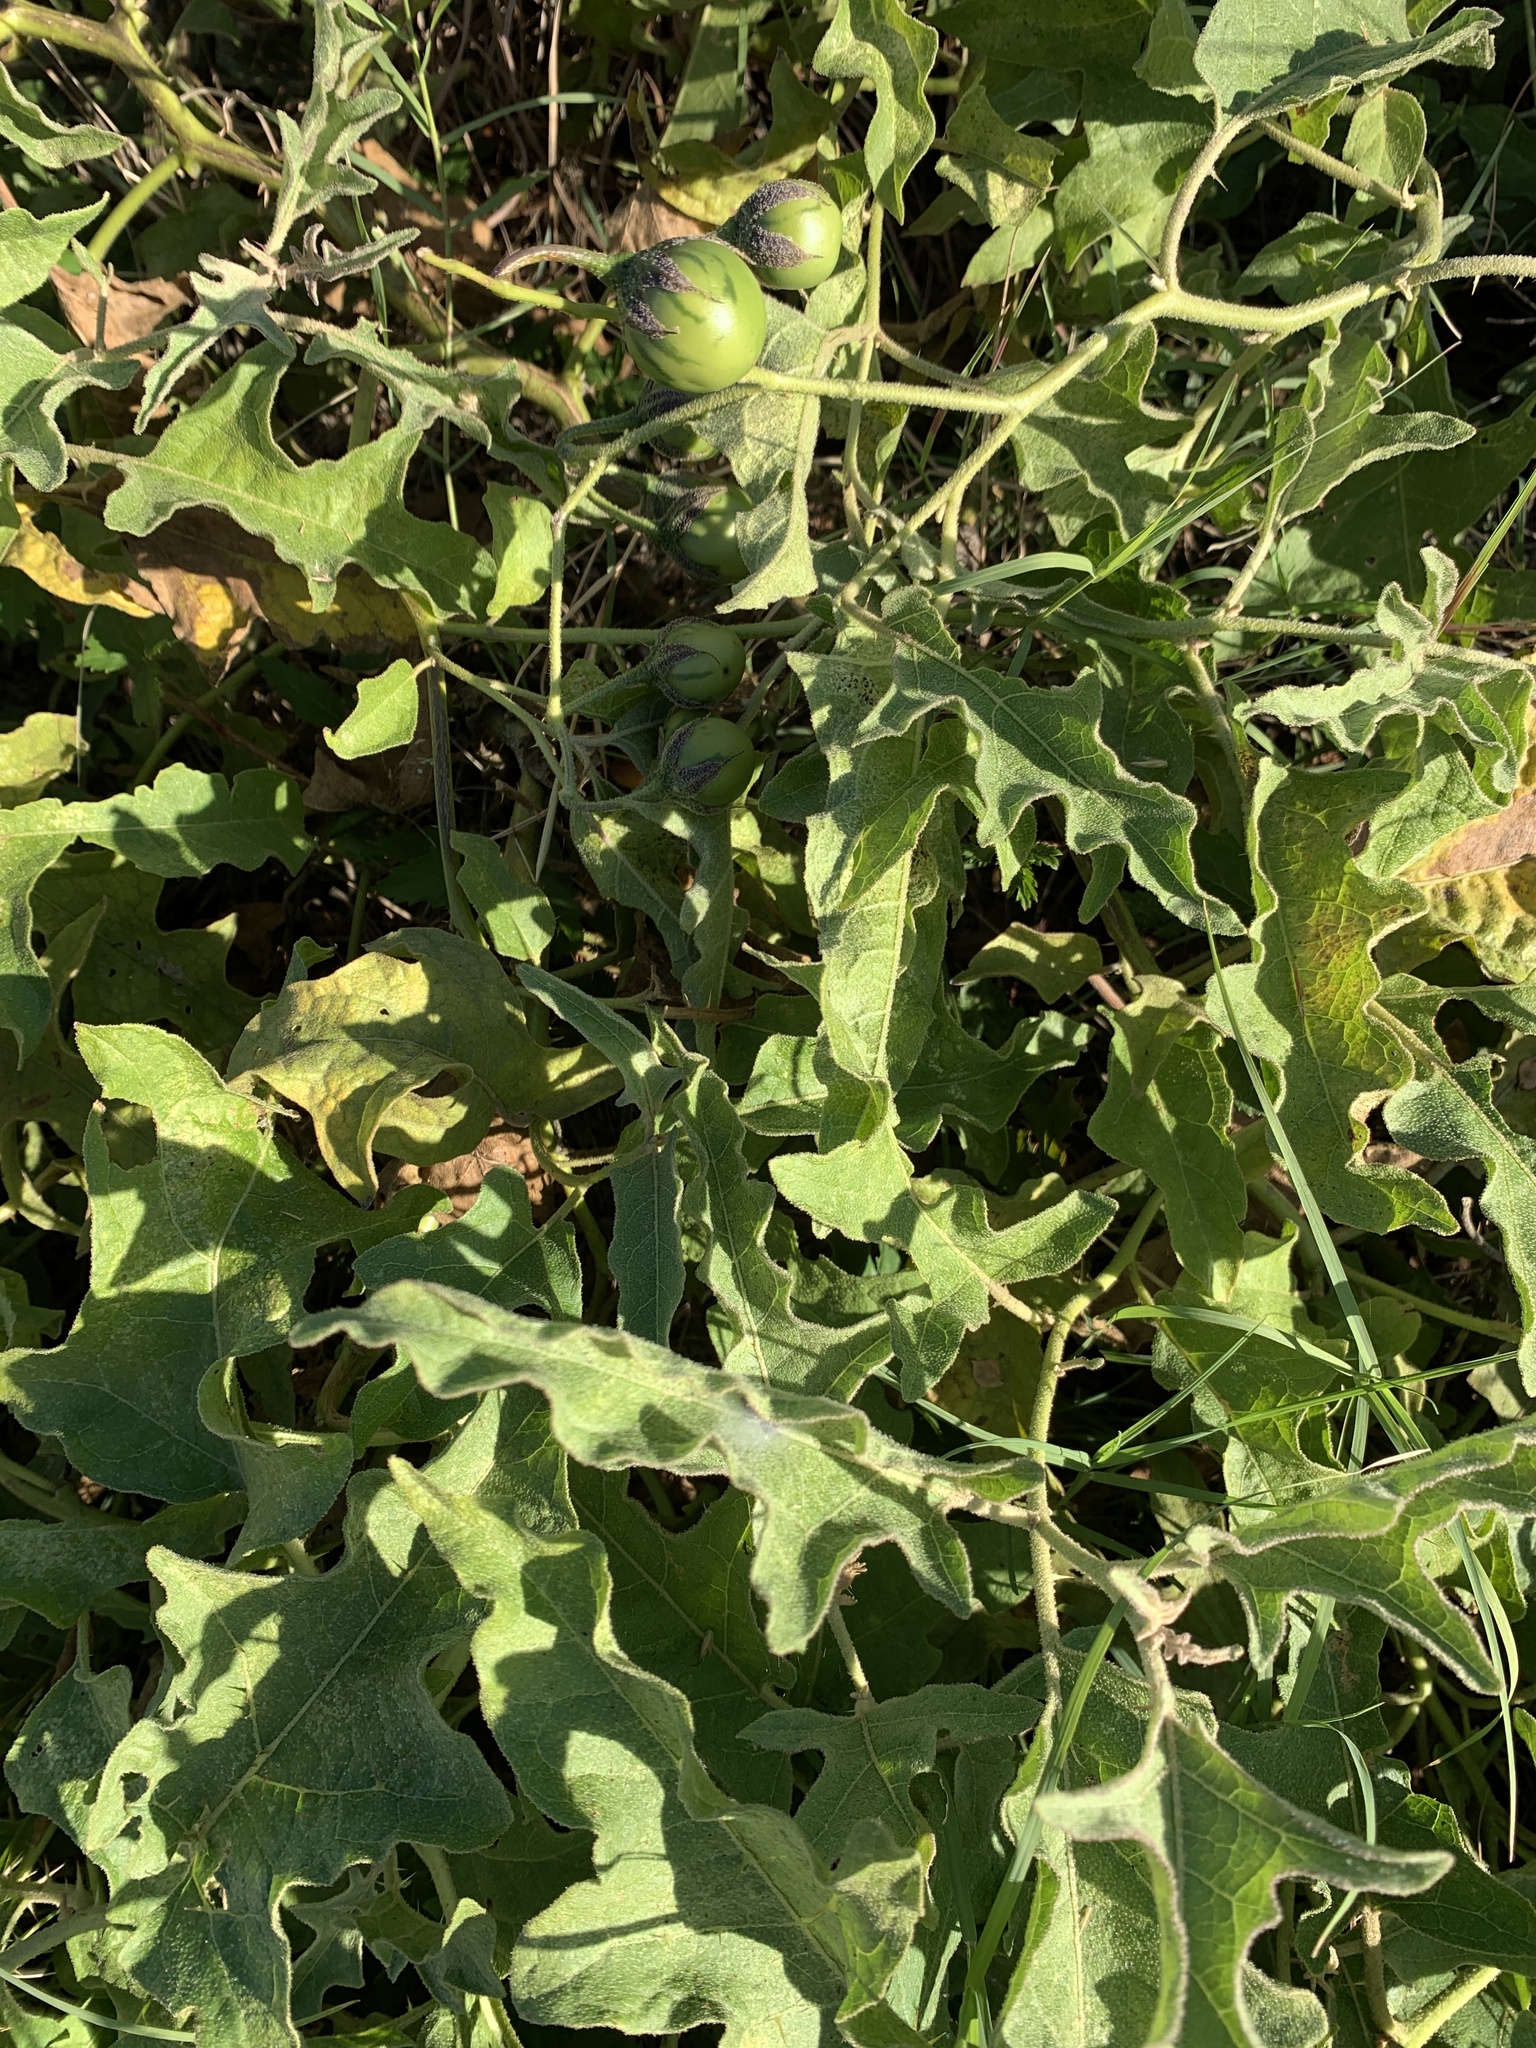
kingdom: Plantae
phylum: Tracheophyta
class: Magnoliopsida
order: Solanales
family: Solanaceae
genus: Solanum
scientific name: Solanum dimidiatum
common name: Carolina horse-nettle
